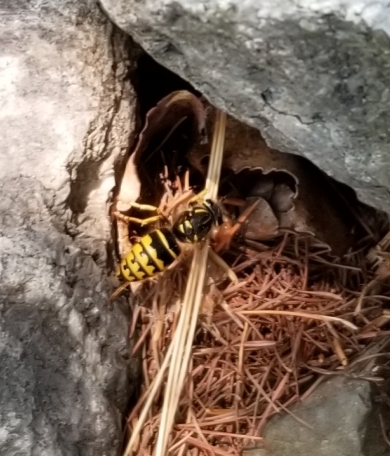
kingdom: Animalia
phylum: Arthropoda
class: Insecta
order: Hymenoptera
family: Vespidae
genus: Vespula
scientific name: Vespula alascensis
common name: Alaska yellowjacket
